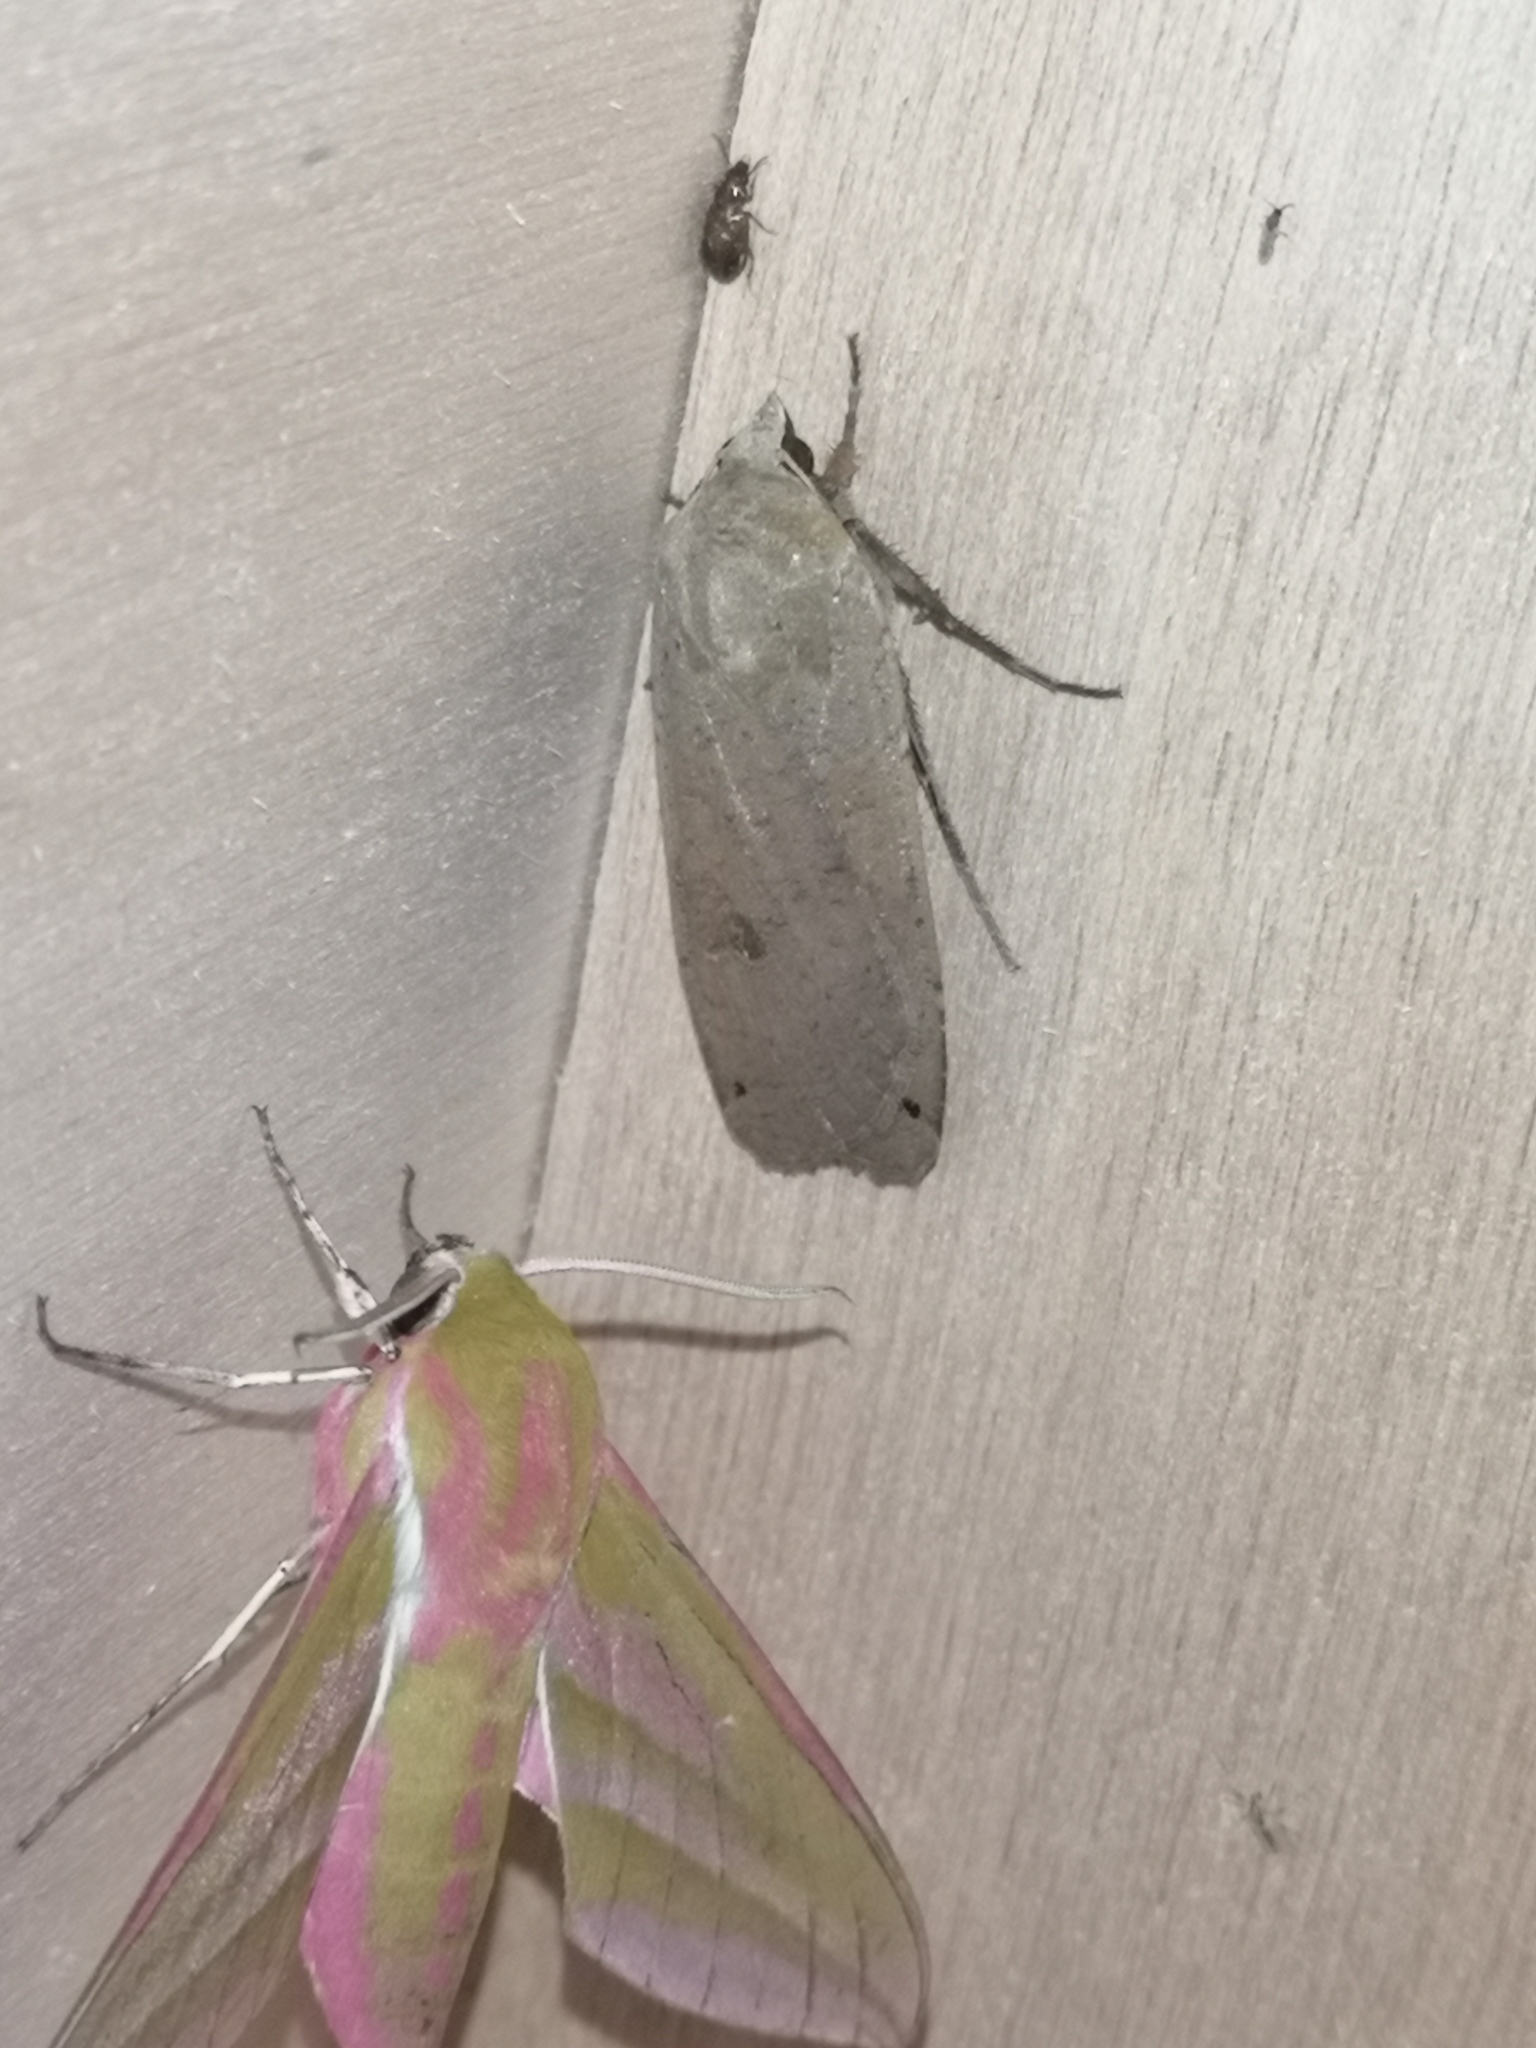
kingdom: Animalia
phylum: Arthropoda
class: Insecta
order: Lepidoptera
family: Noctuidae
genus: Noctua
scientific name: Noctua pronuba
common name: Large yellow underwing
